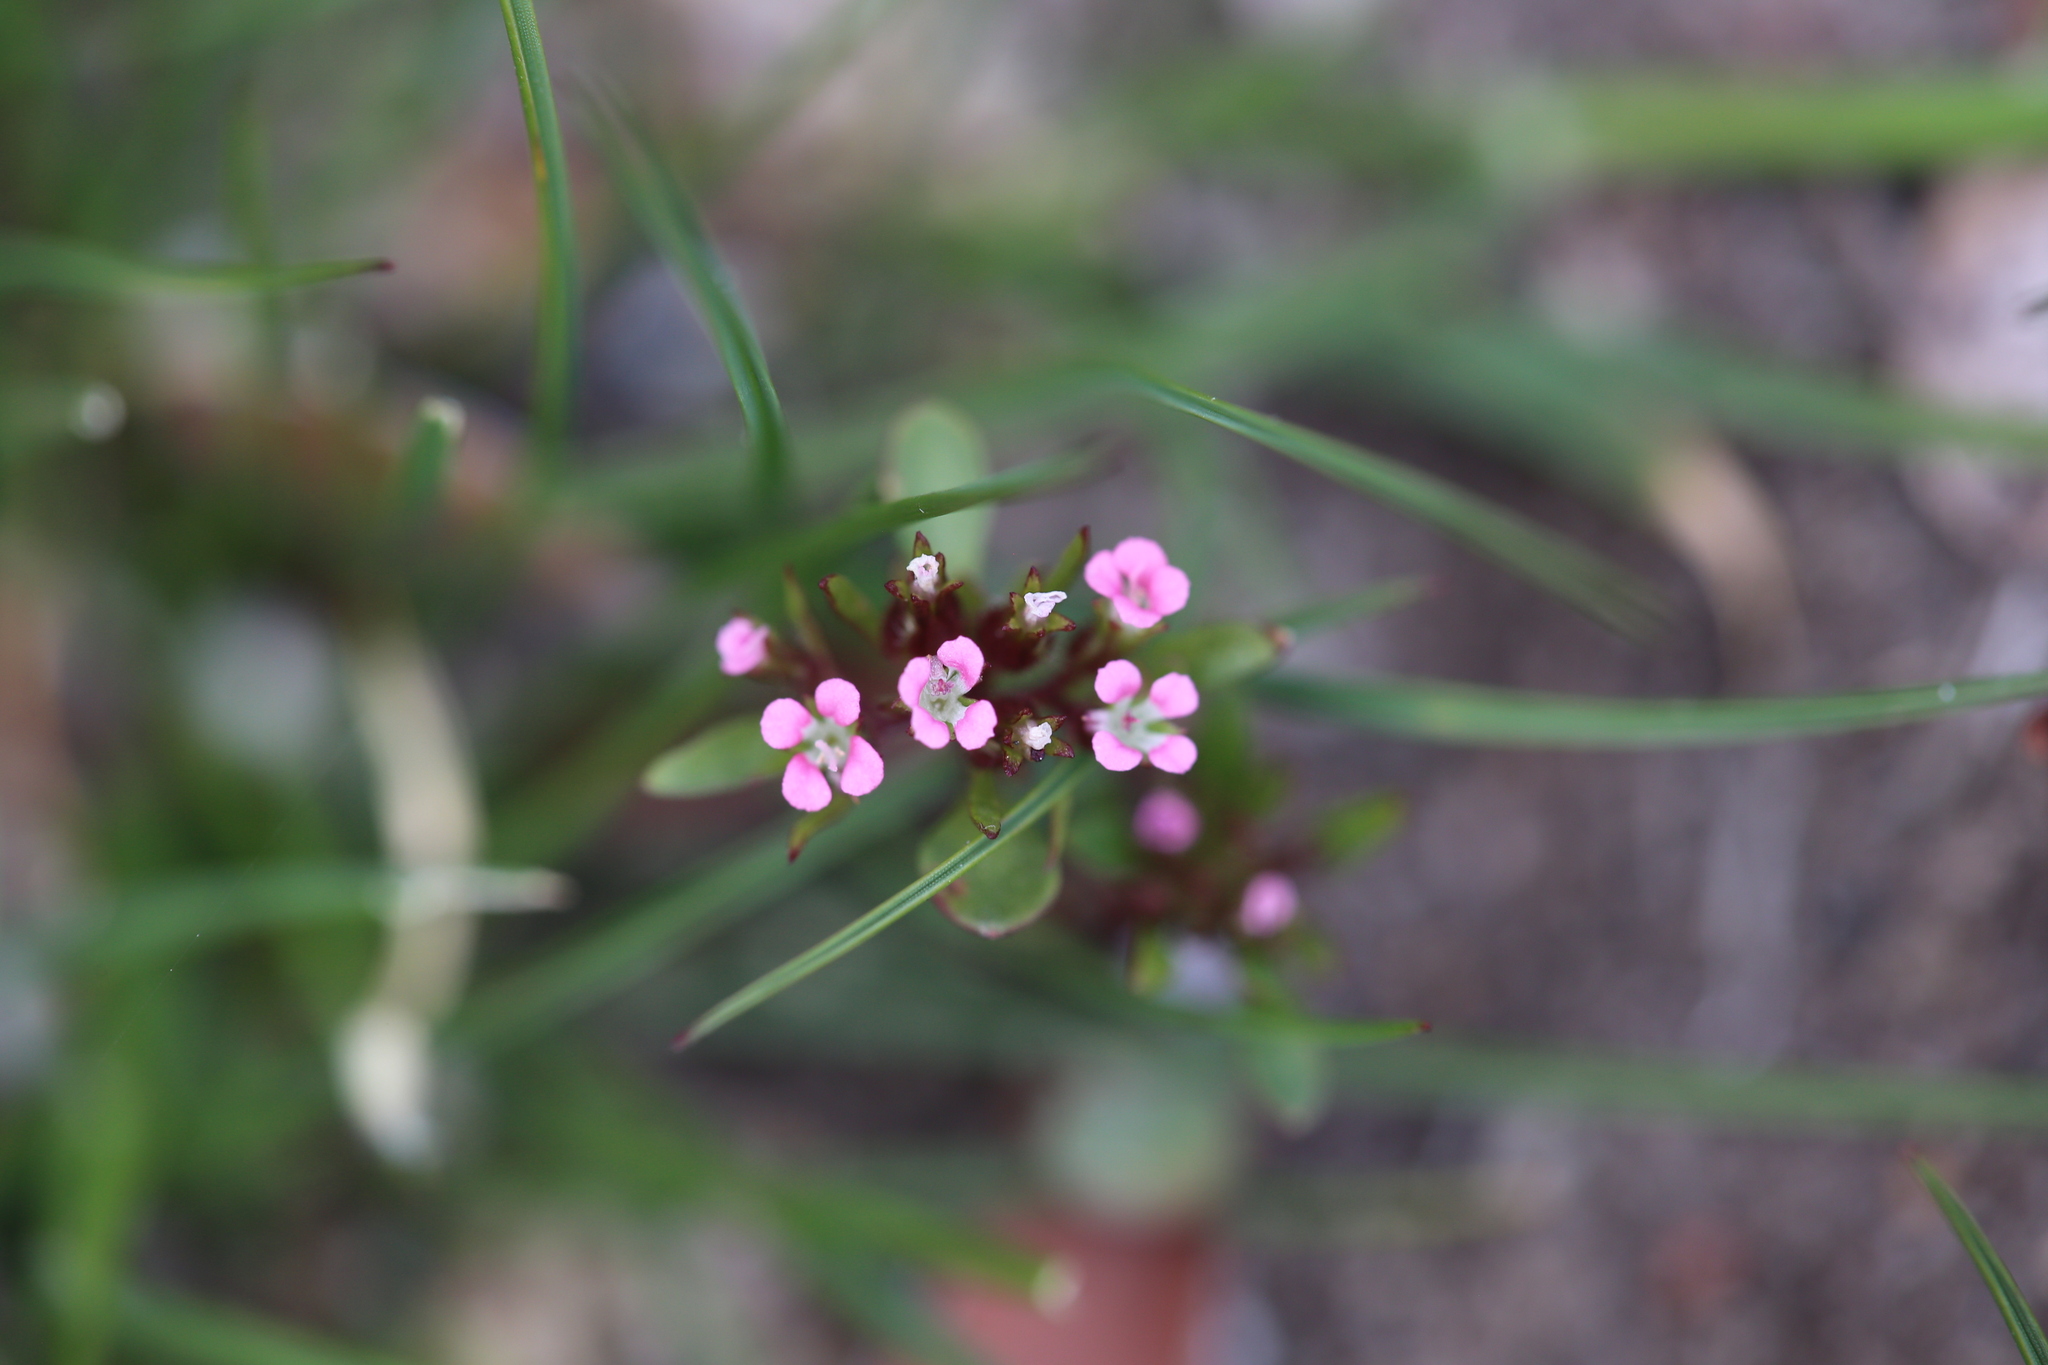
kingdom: Plantae
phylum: Tracheophyta
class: Magnoliopsida
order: Asterales
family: Stylidiaceae
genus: Levenhookia
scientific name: Levenhookia pusilla
